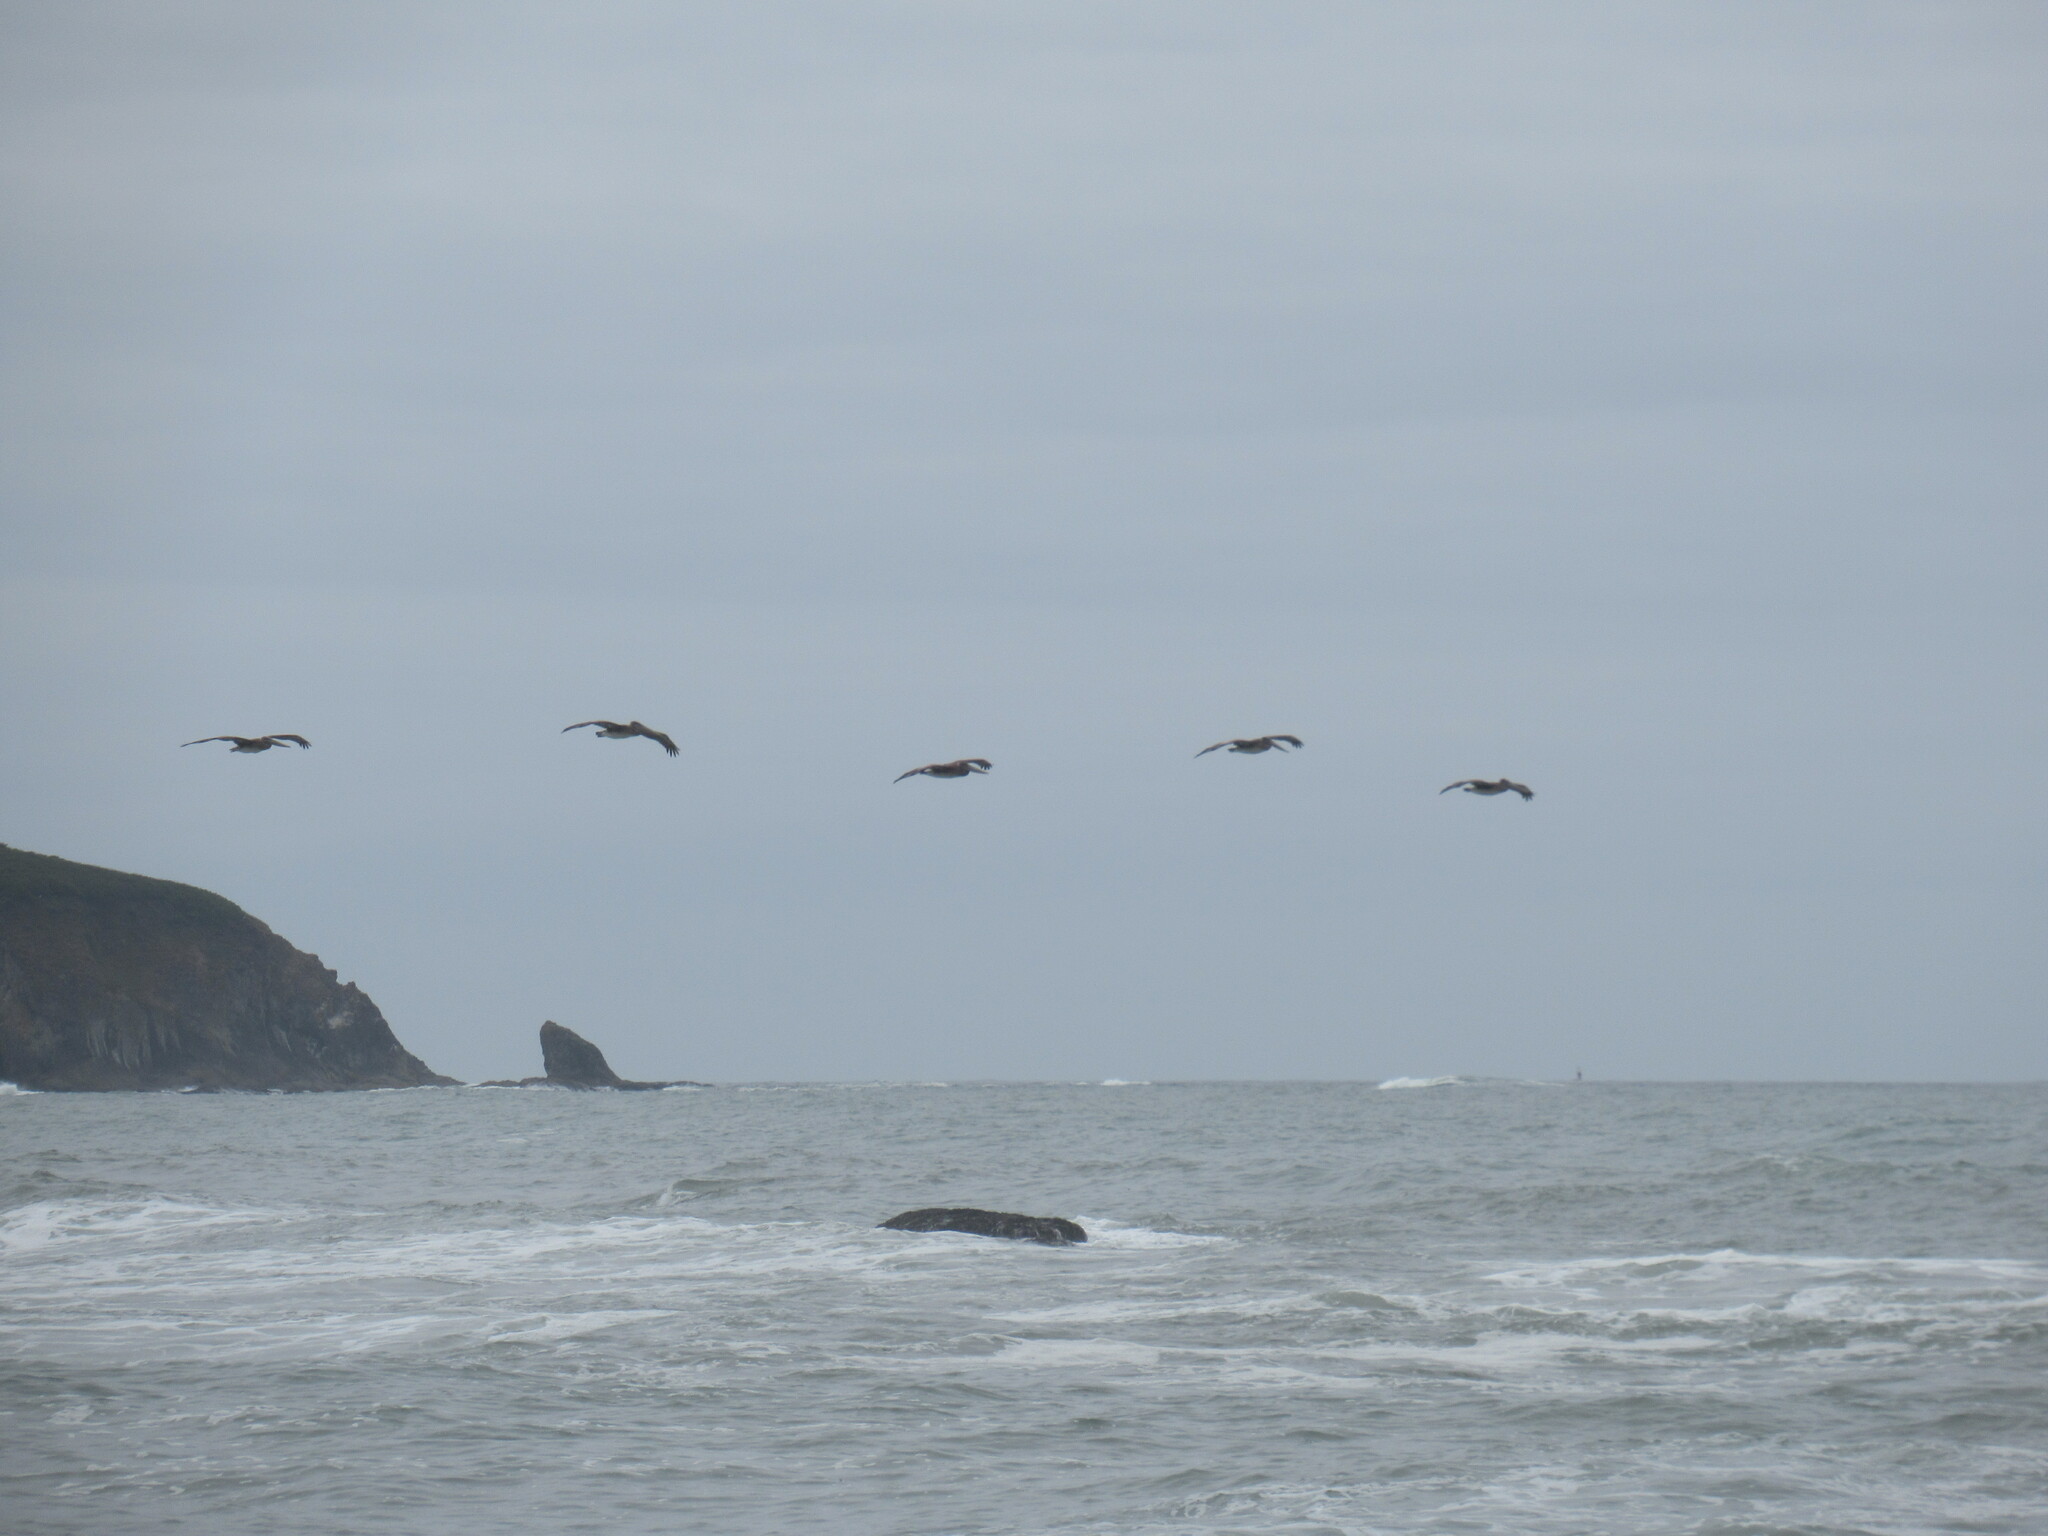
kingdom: Animalia
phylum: Chordata
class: Aves
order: Pelecaniformes
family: Pelecanidae
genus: Pelecanus
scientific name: Pelecanus occidentalis
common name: Brown pelican
